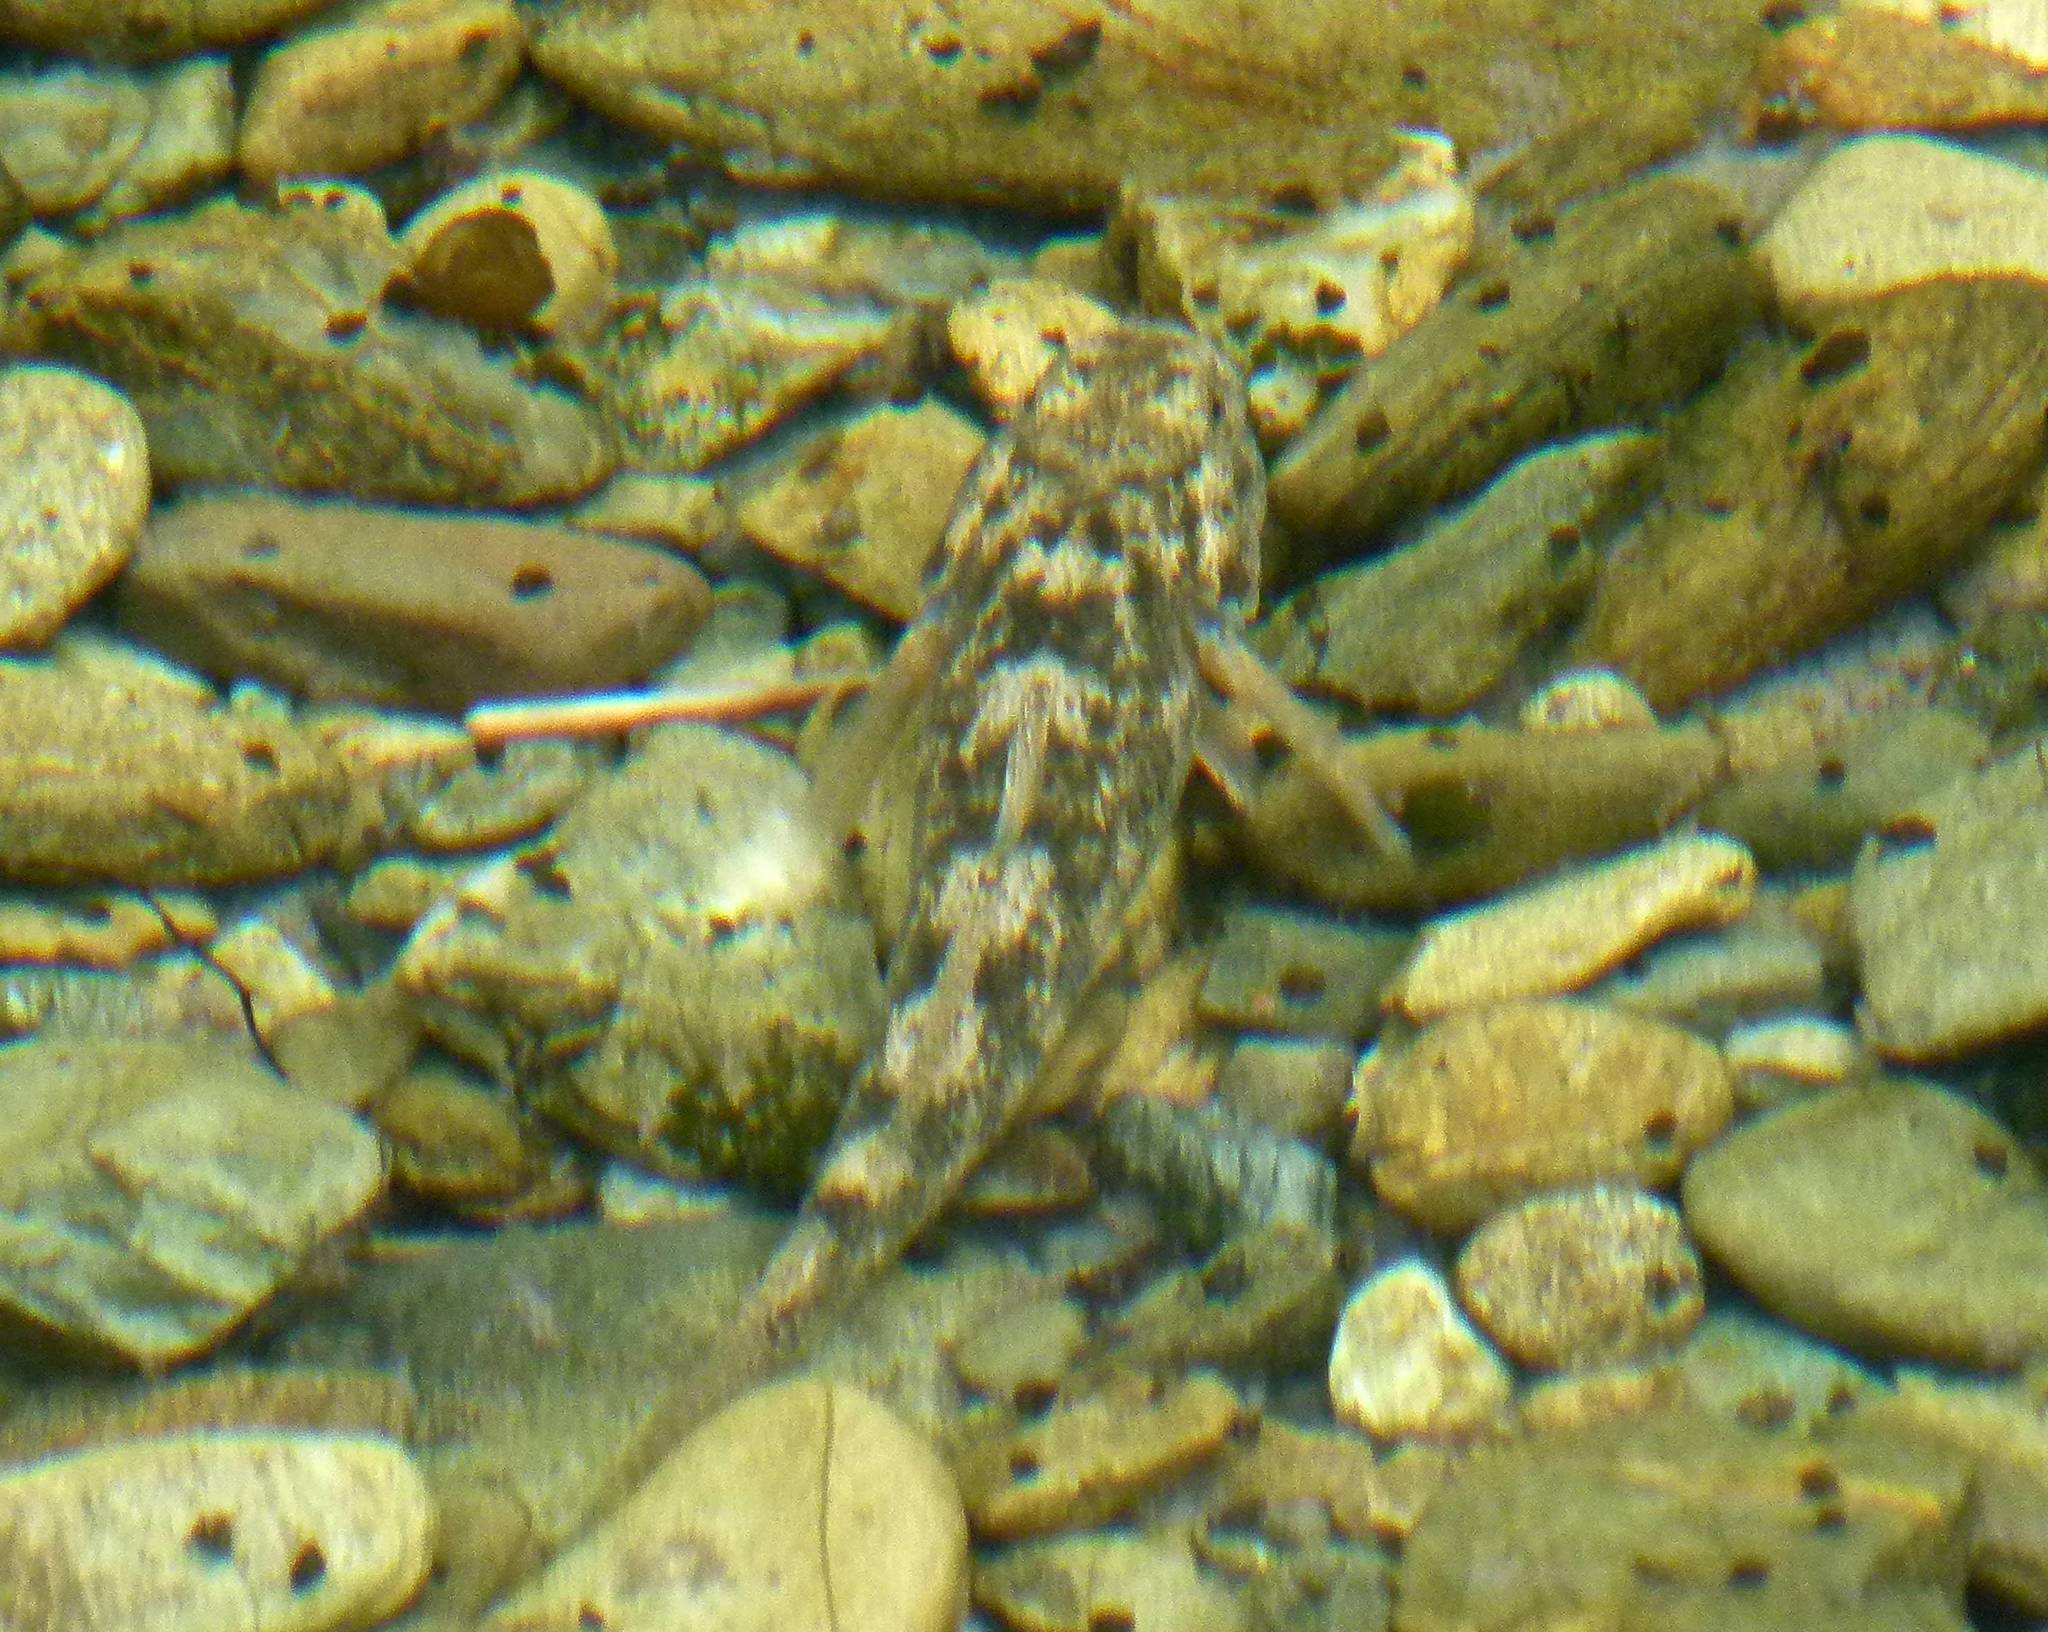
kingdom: Animalia
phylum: Chordata
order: Perciformes
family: Eleotridae
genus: Gobiomorphus
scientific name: Gobiomorphus breviceps
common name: Upland bully
